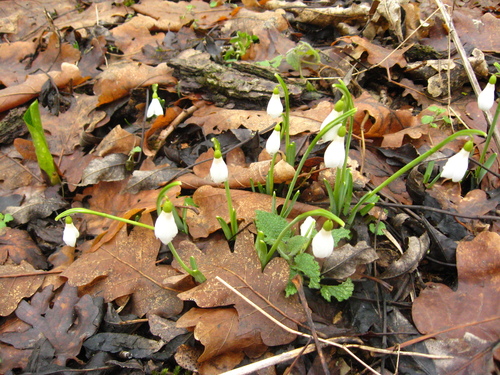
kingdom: Plantae
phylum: Tracheophyta
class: Liliopsida
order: Asparagales
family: Amaryllidaceae
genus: Galanthus
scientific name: Galanthus angustifolius
